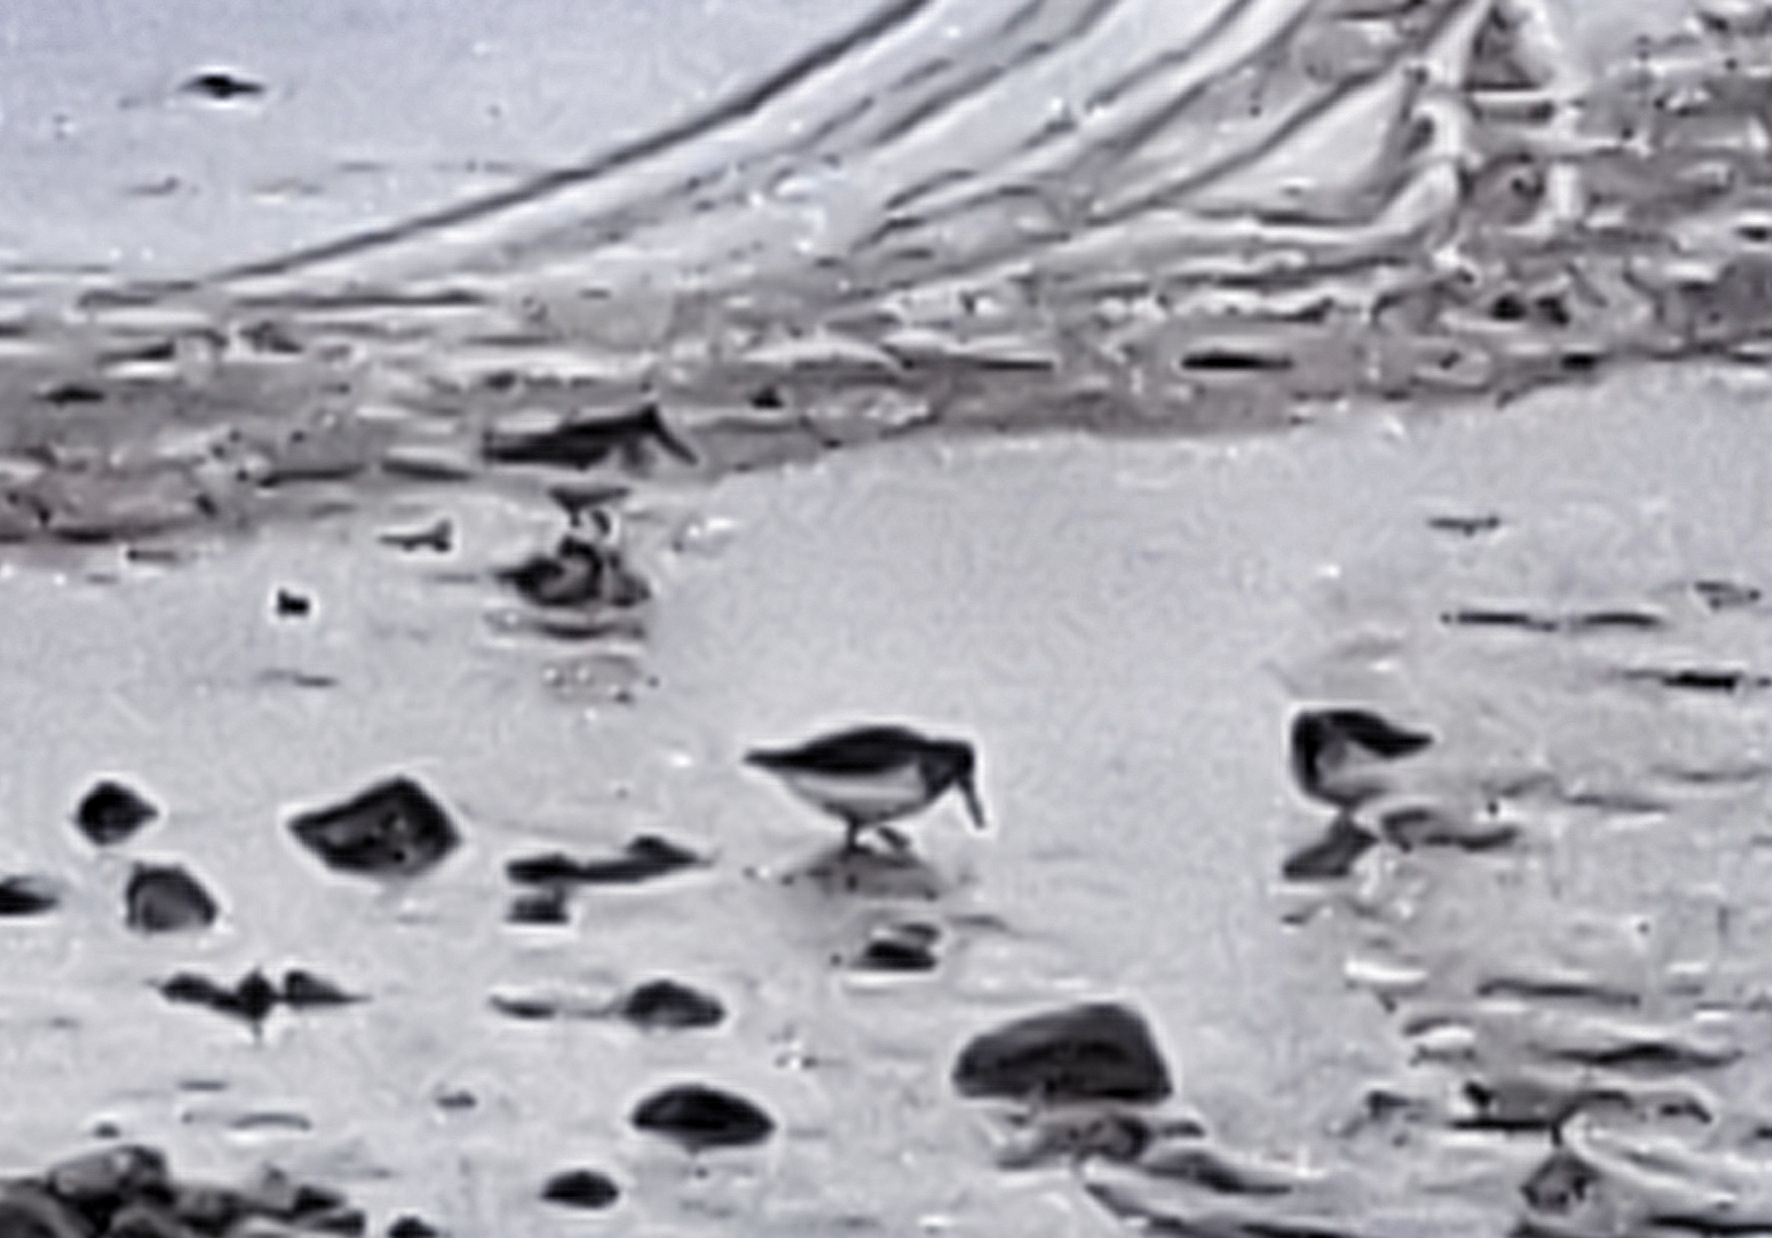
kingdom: Animalia
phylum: Chordata
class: Aves
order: Charadriiformes
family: Scolopacidae
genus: Calidris
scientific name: Calidris alpina
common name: Dunlin
